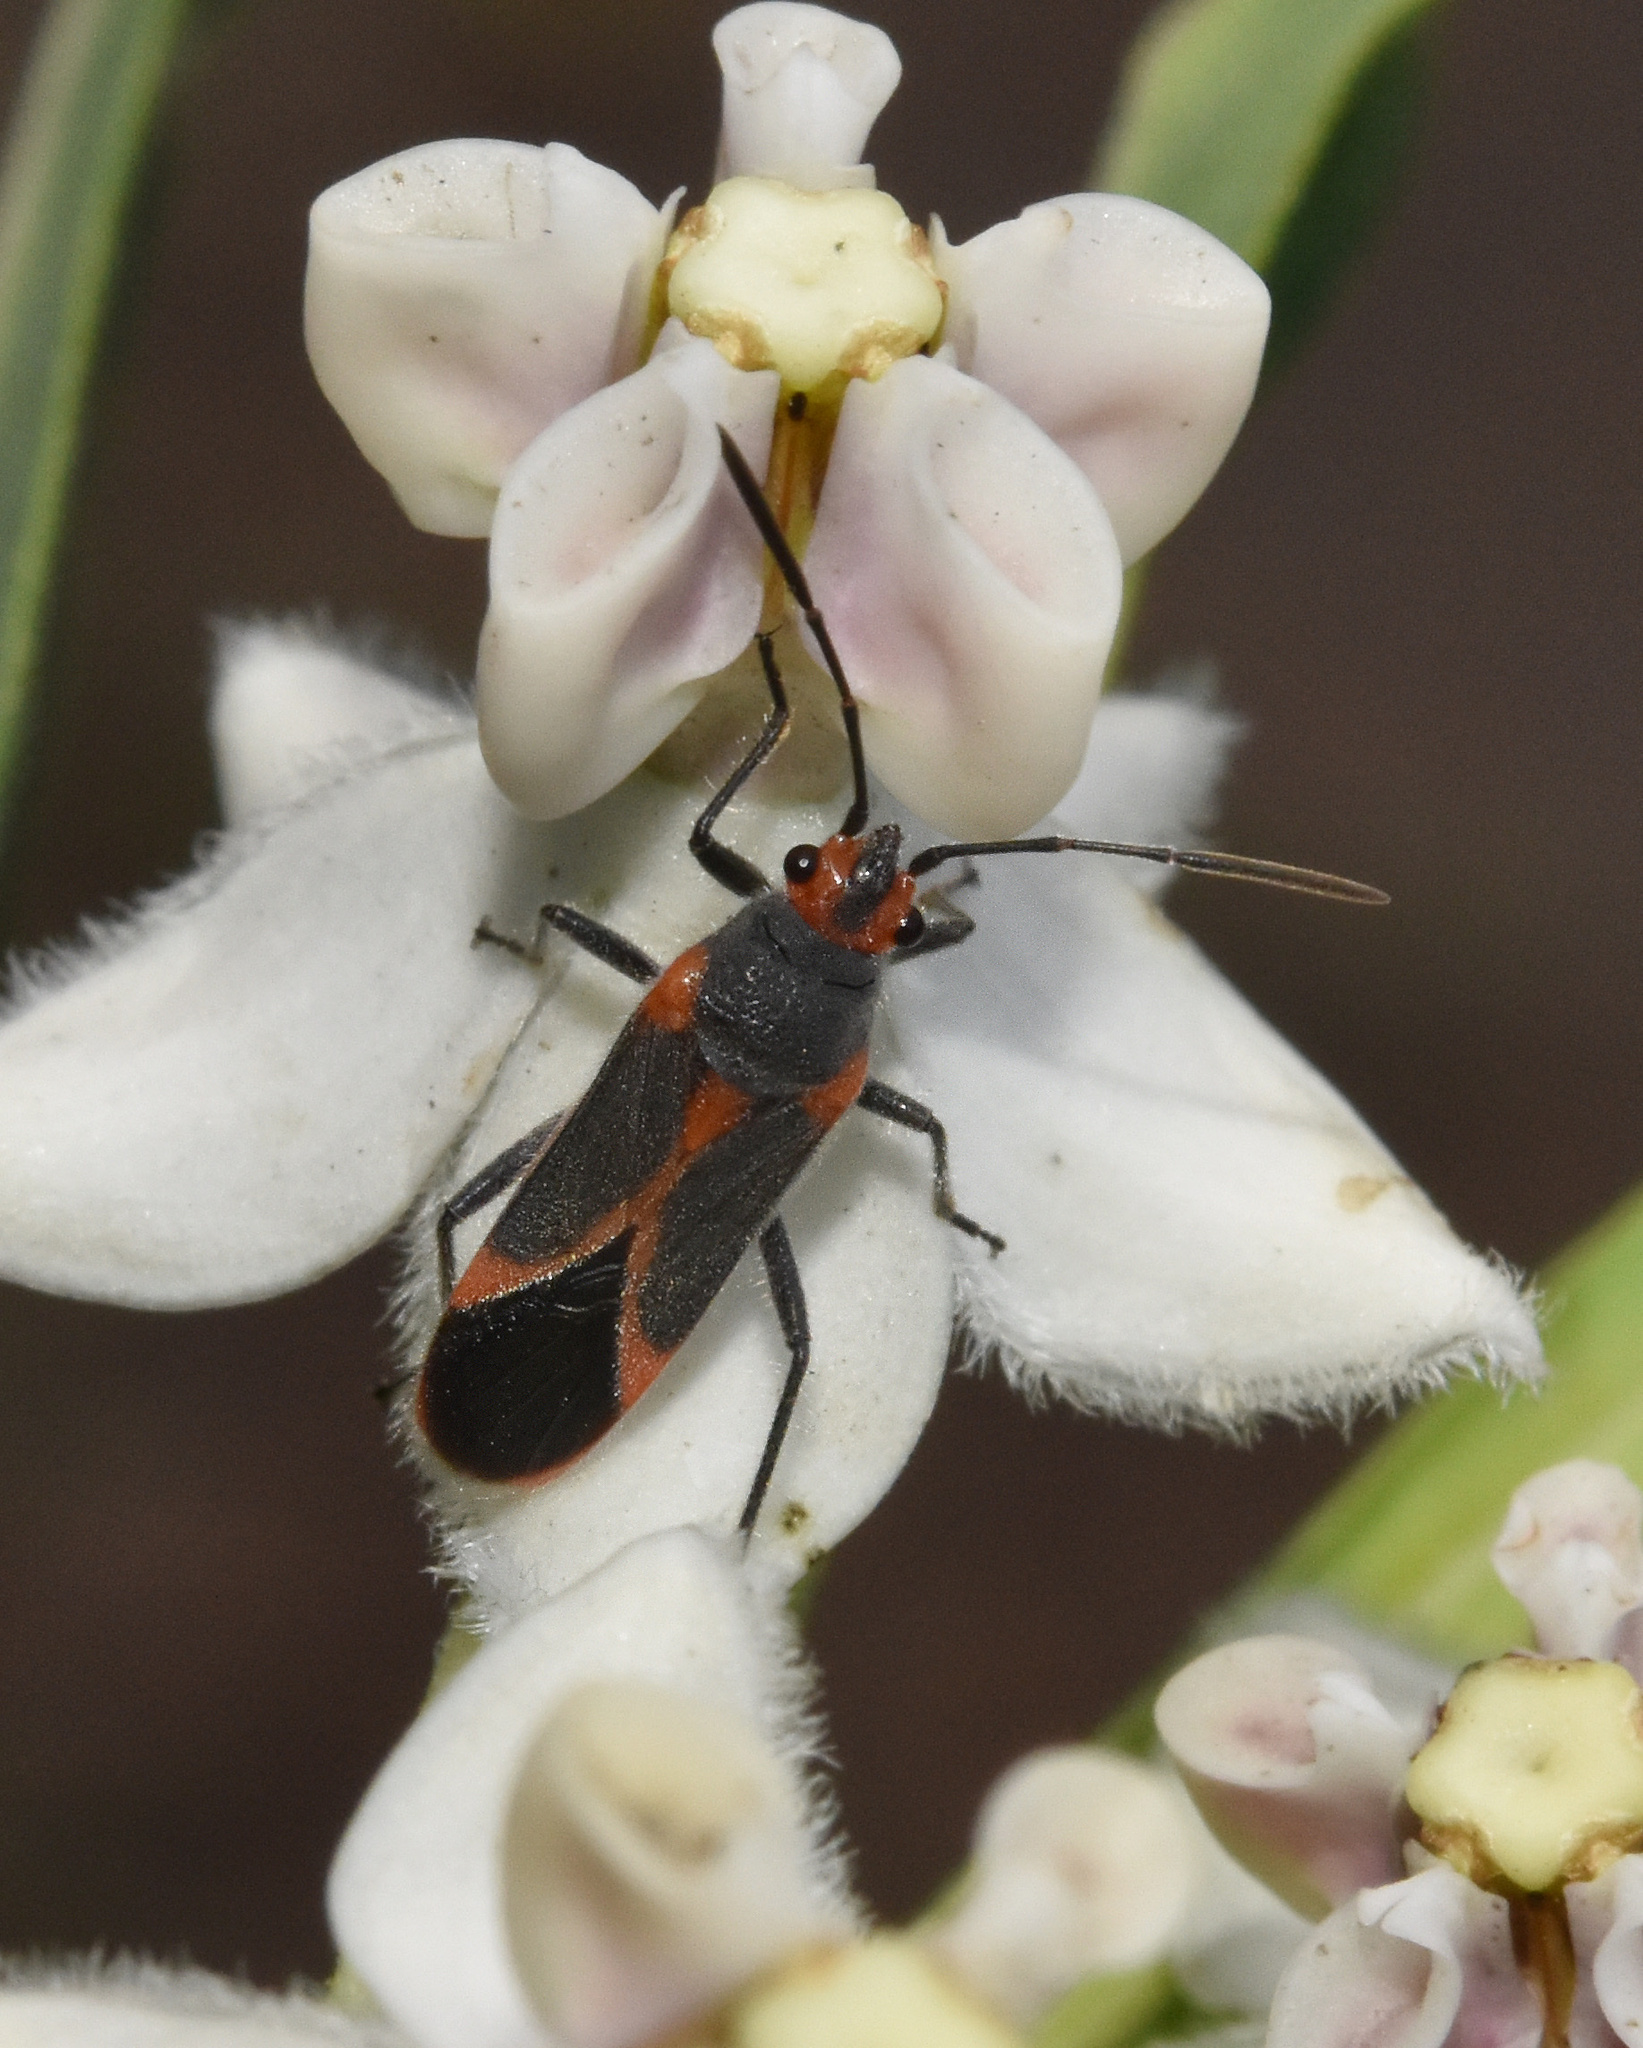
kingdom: Animalia
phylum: Arthropoda
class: Insecta
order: Hemiptera
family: Lygaeidae
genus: Caenocoris
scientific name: Caenocoris nerii
